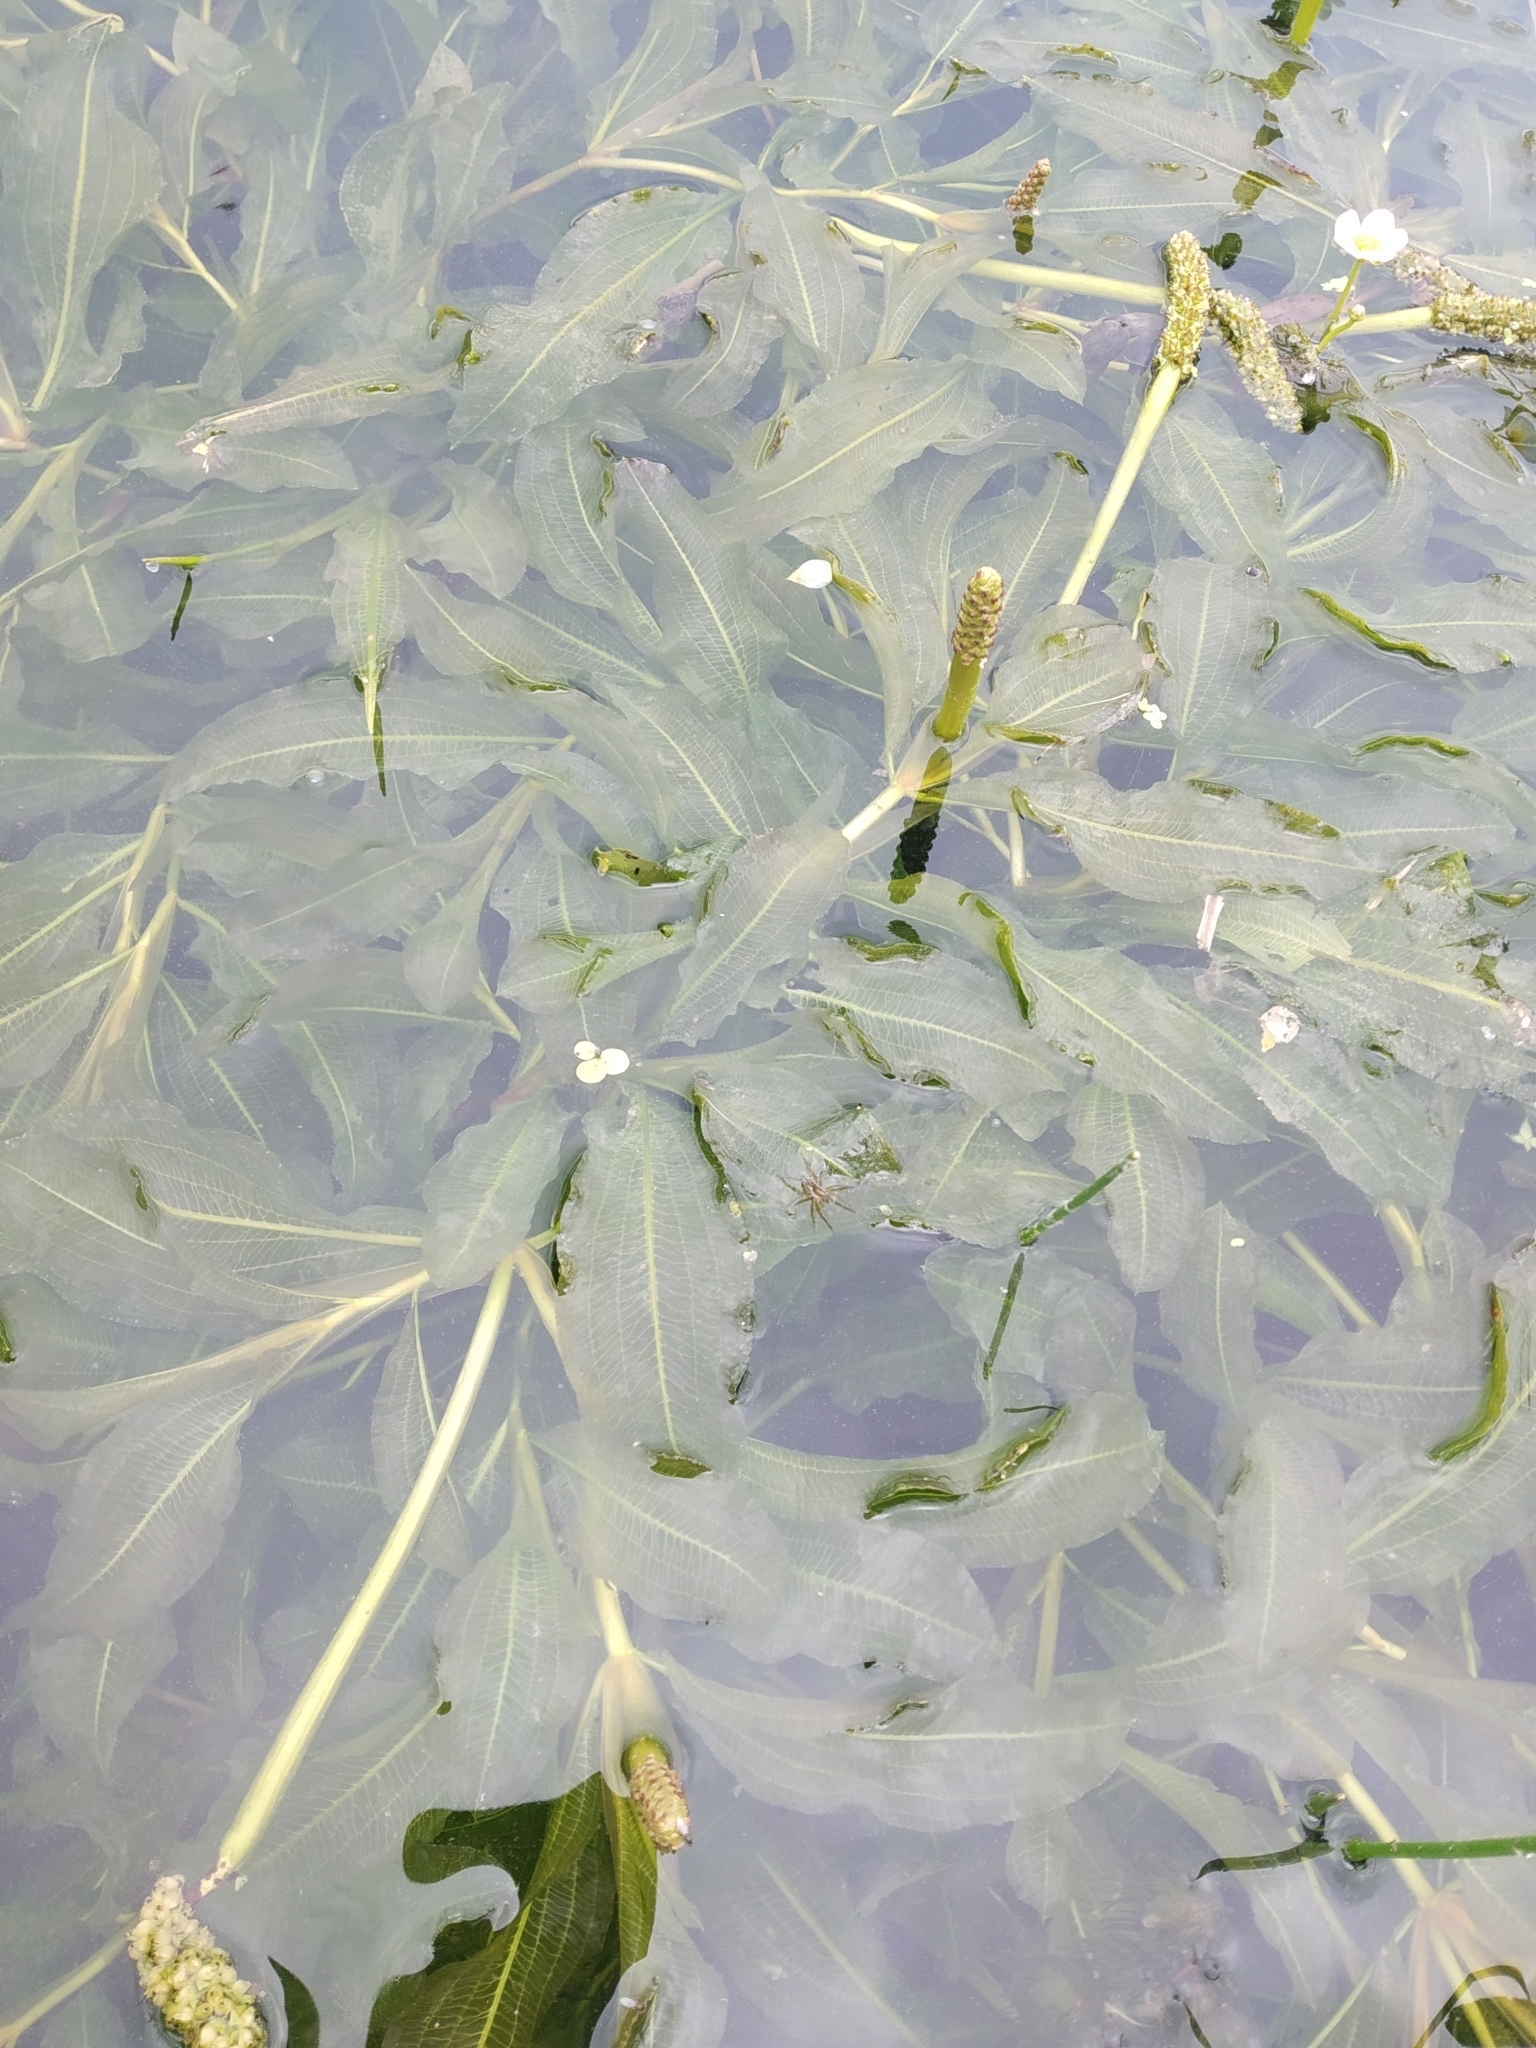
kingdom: Plantae
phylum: Tracheophyta
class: Liliopsida
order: Alismatales
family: Potamogetonaceae
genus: Potamogeton
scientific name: Potamogeton lucens
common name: Shining pondweed
